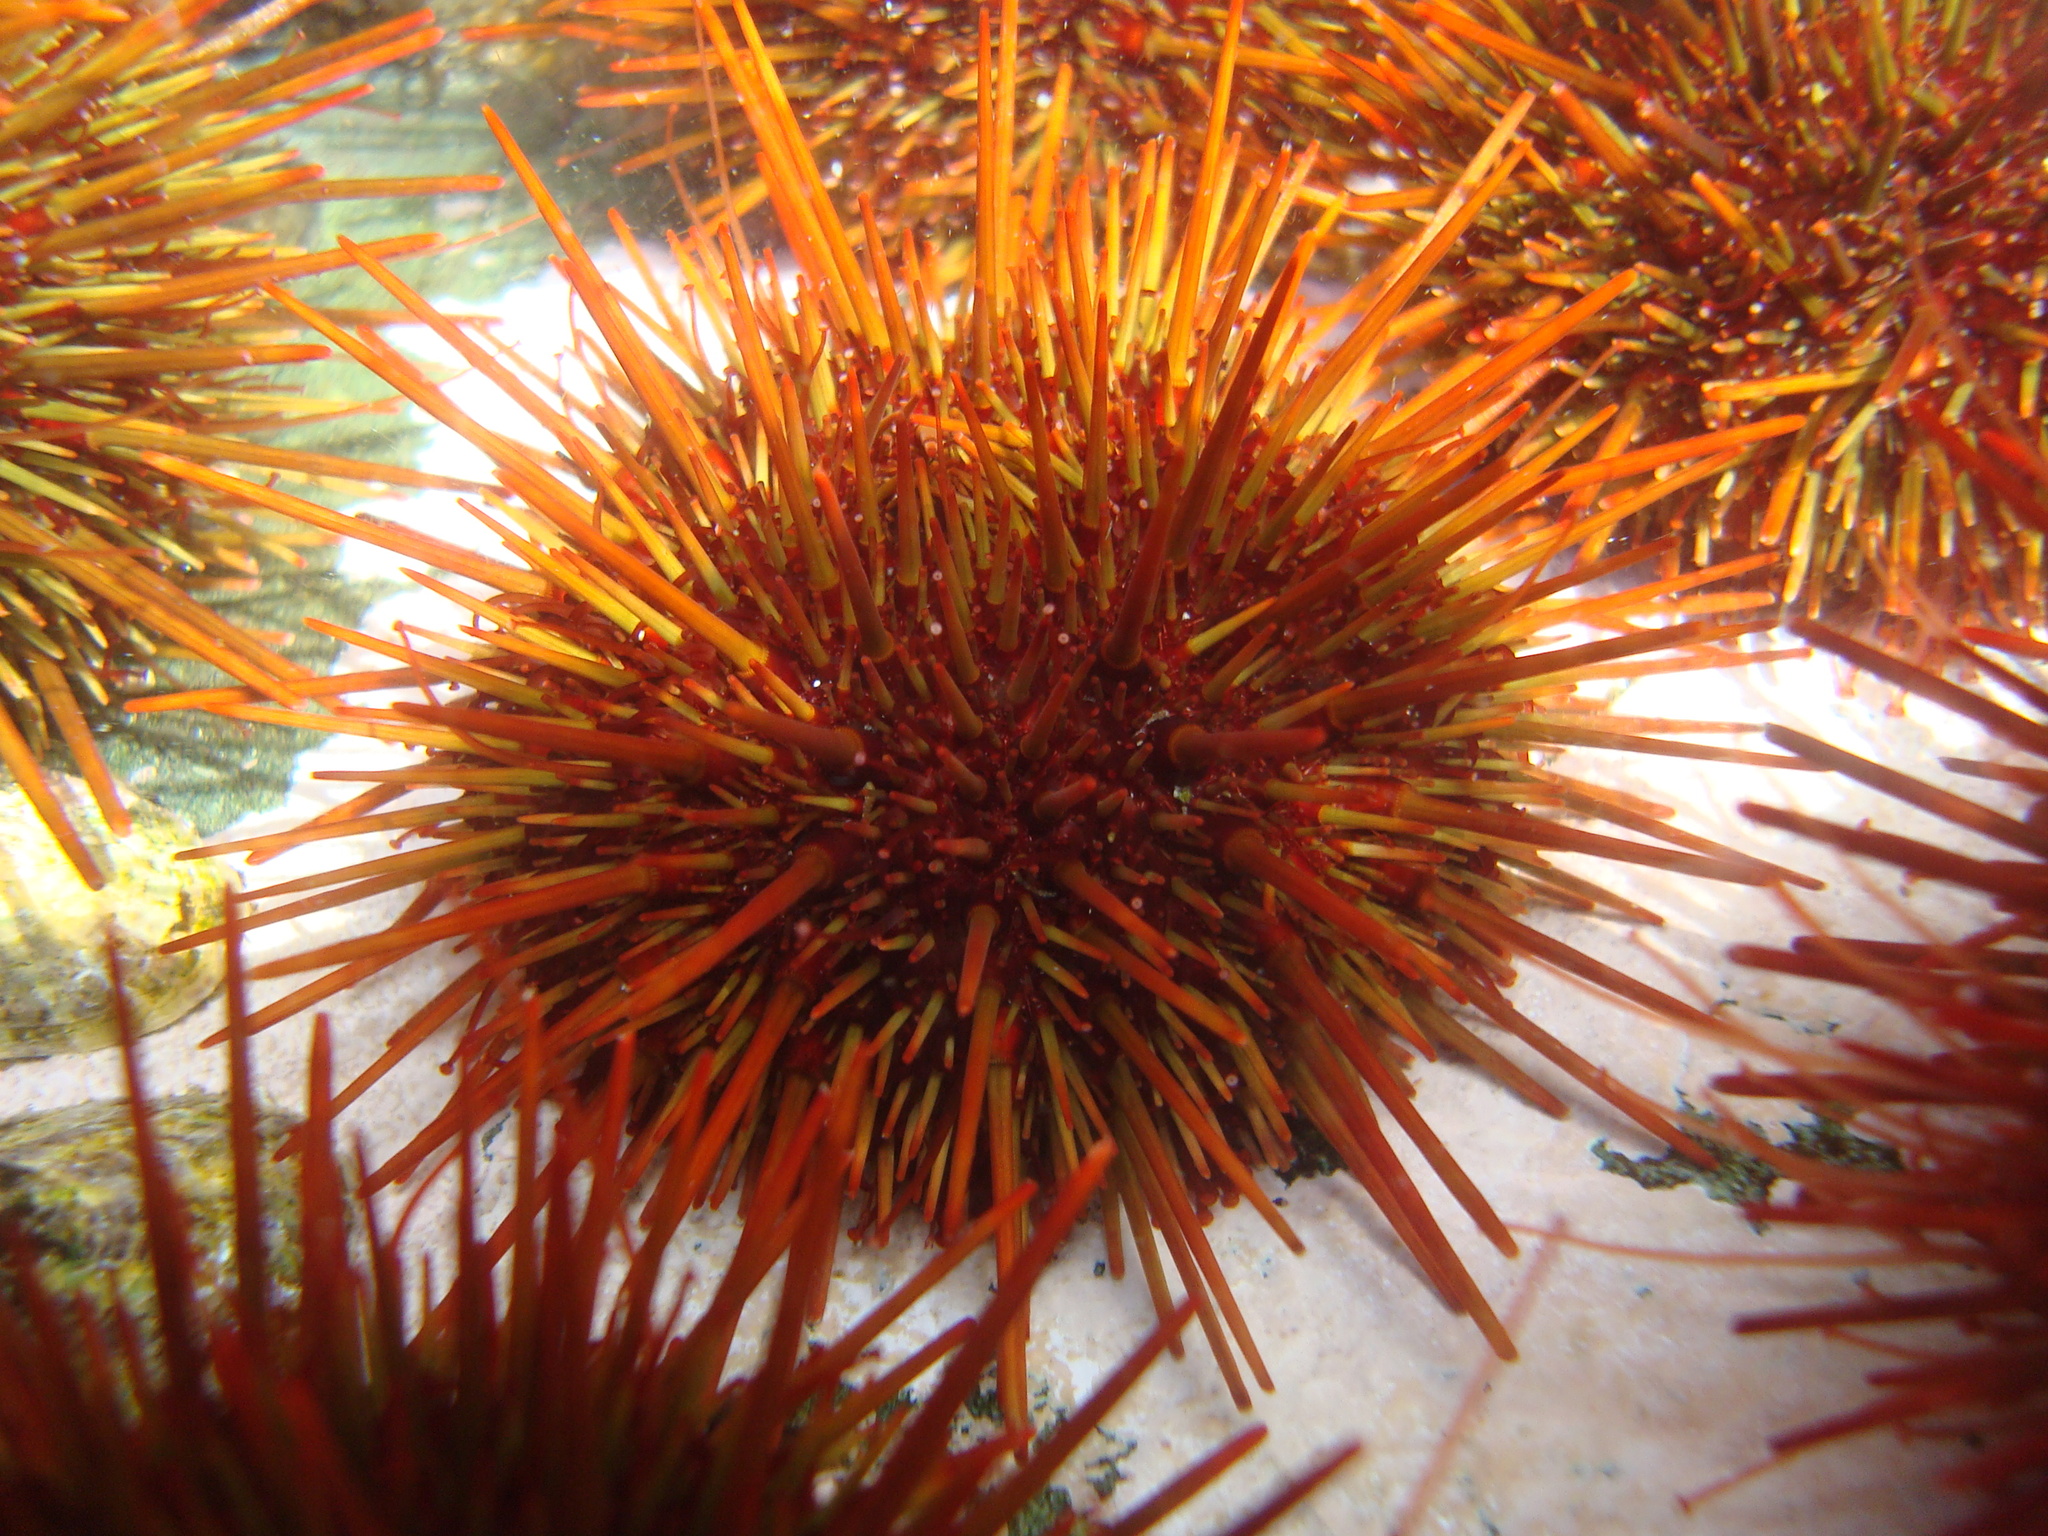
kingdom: Animalia
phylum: Echinodermata
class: Echinoidea
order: Camarodonta
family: Parechinidae
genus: Loxechinus
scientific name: Loxechinus albus
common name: Chilean sea urchin
